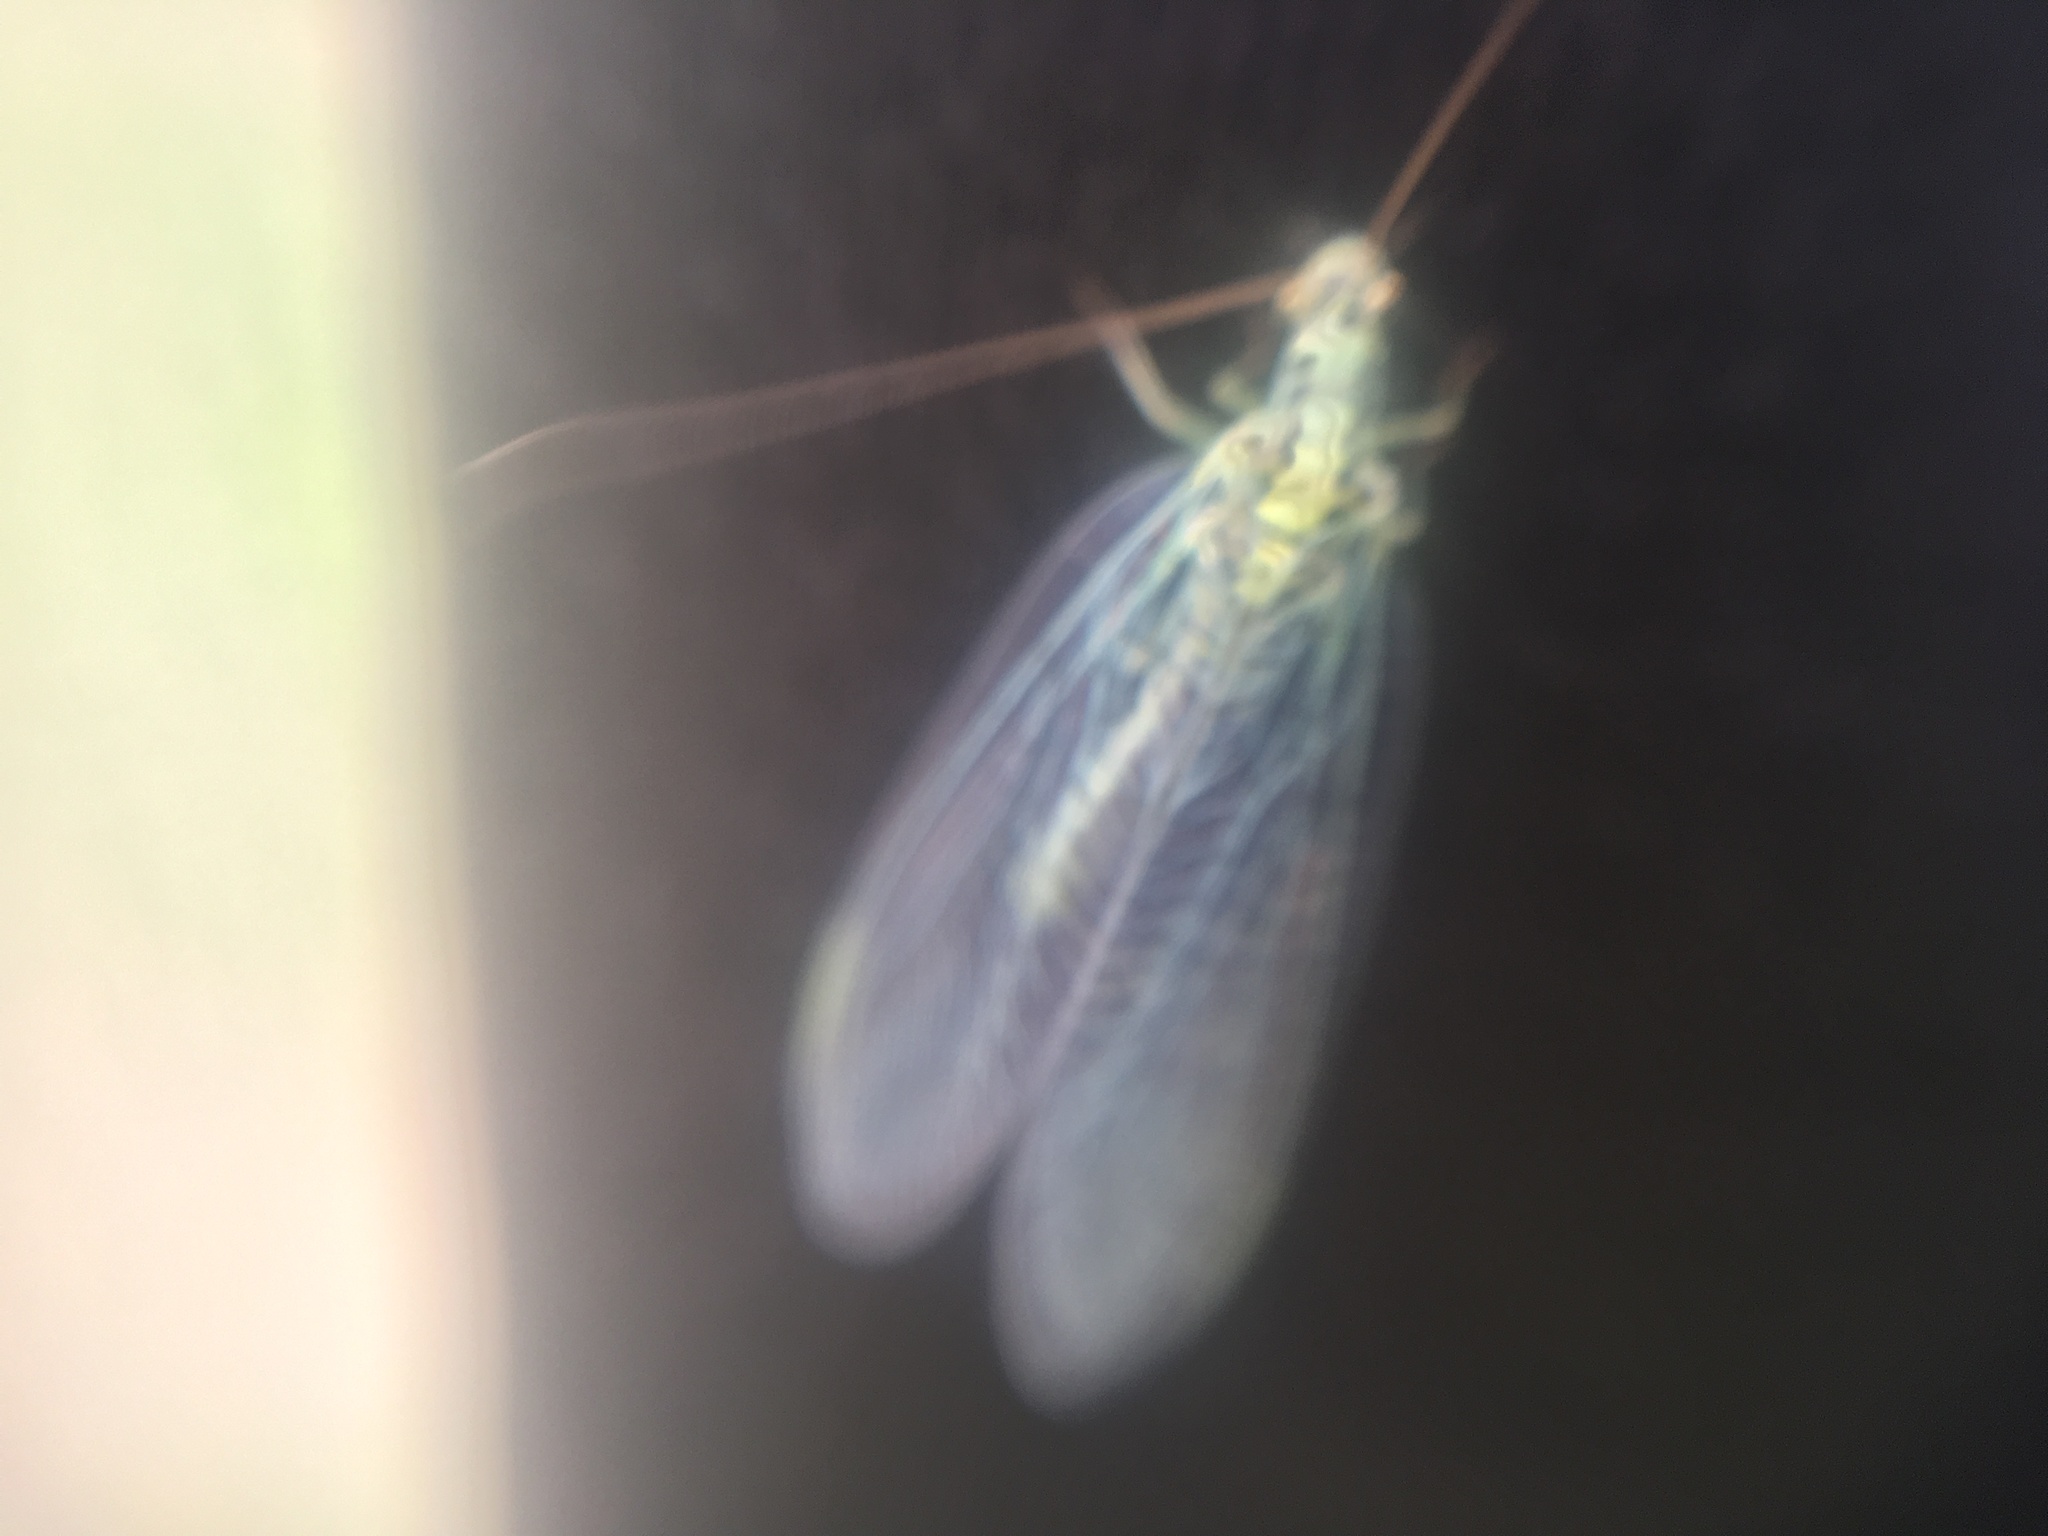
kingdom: Animalia
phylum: Arthropoda
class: Insecta
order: Neuroptera
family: Chrysopidae
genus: Chrysopa
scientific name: Chrysopa perla
